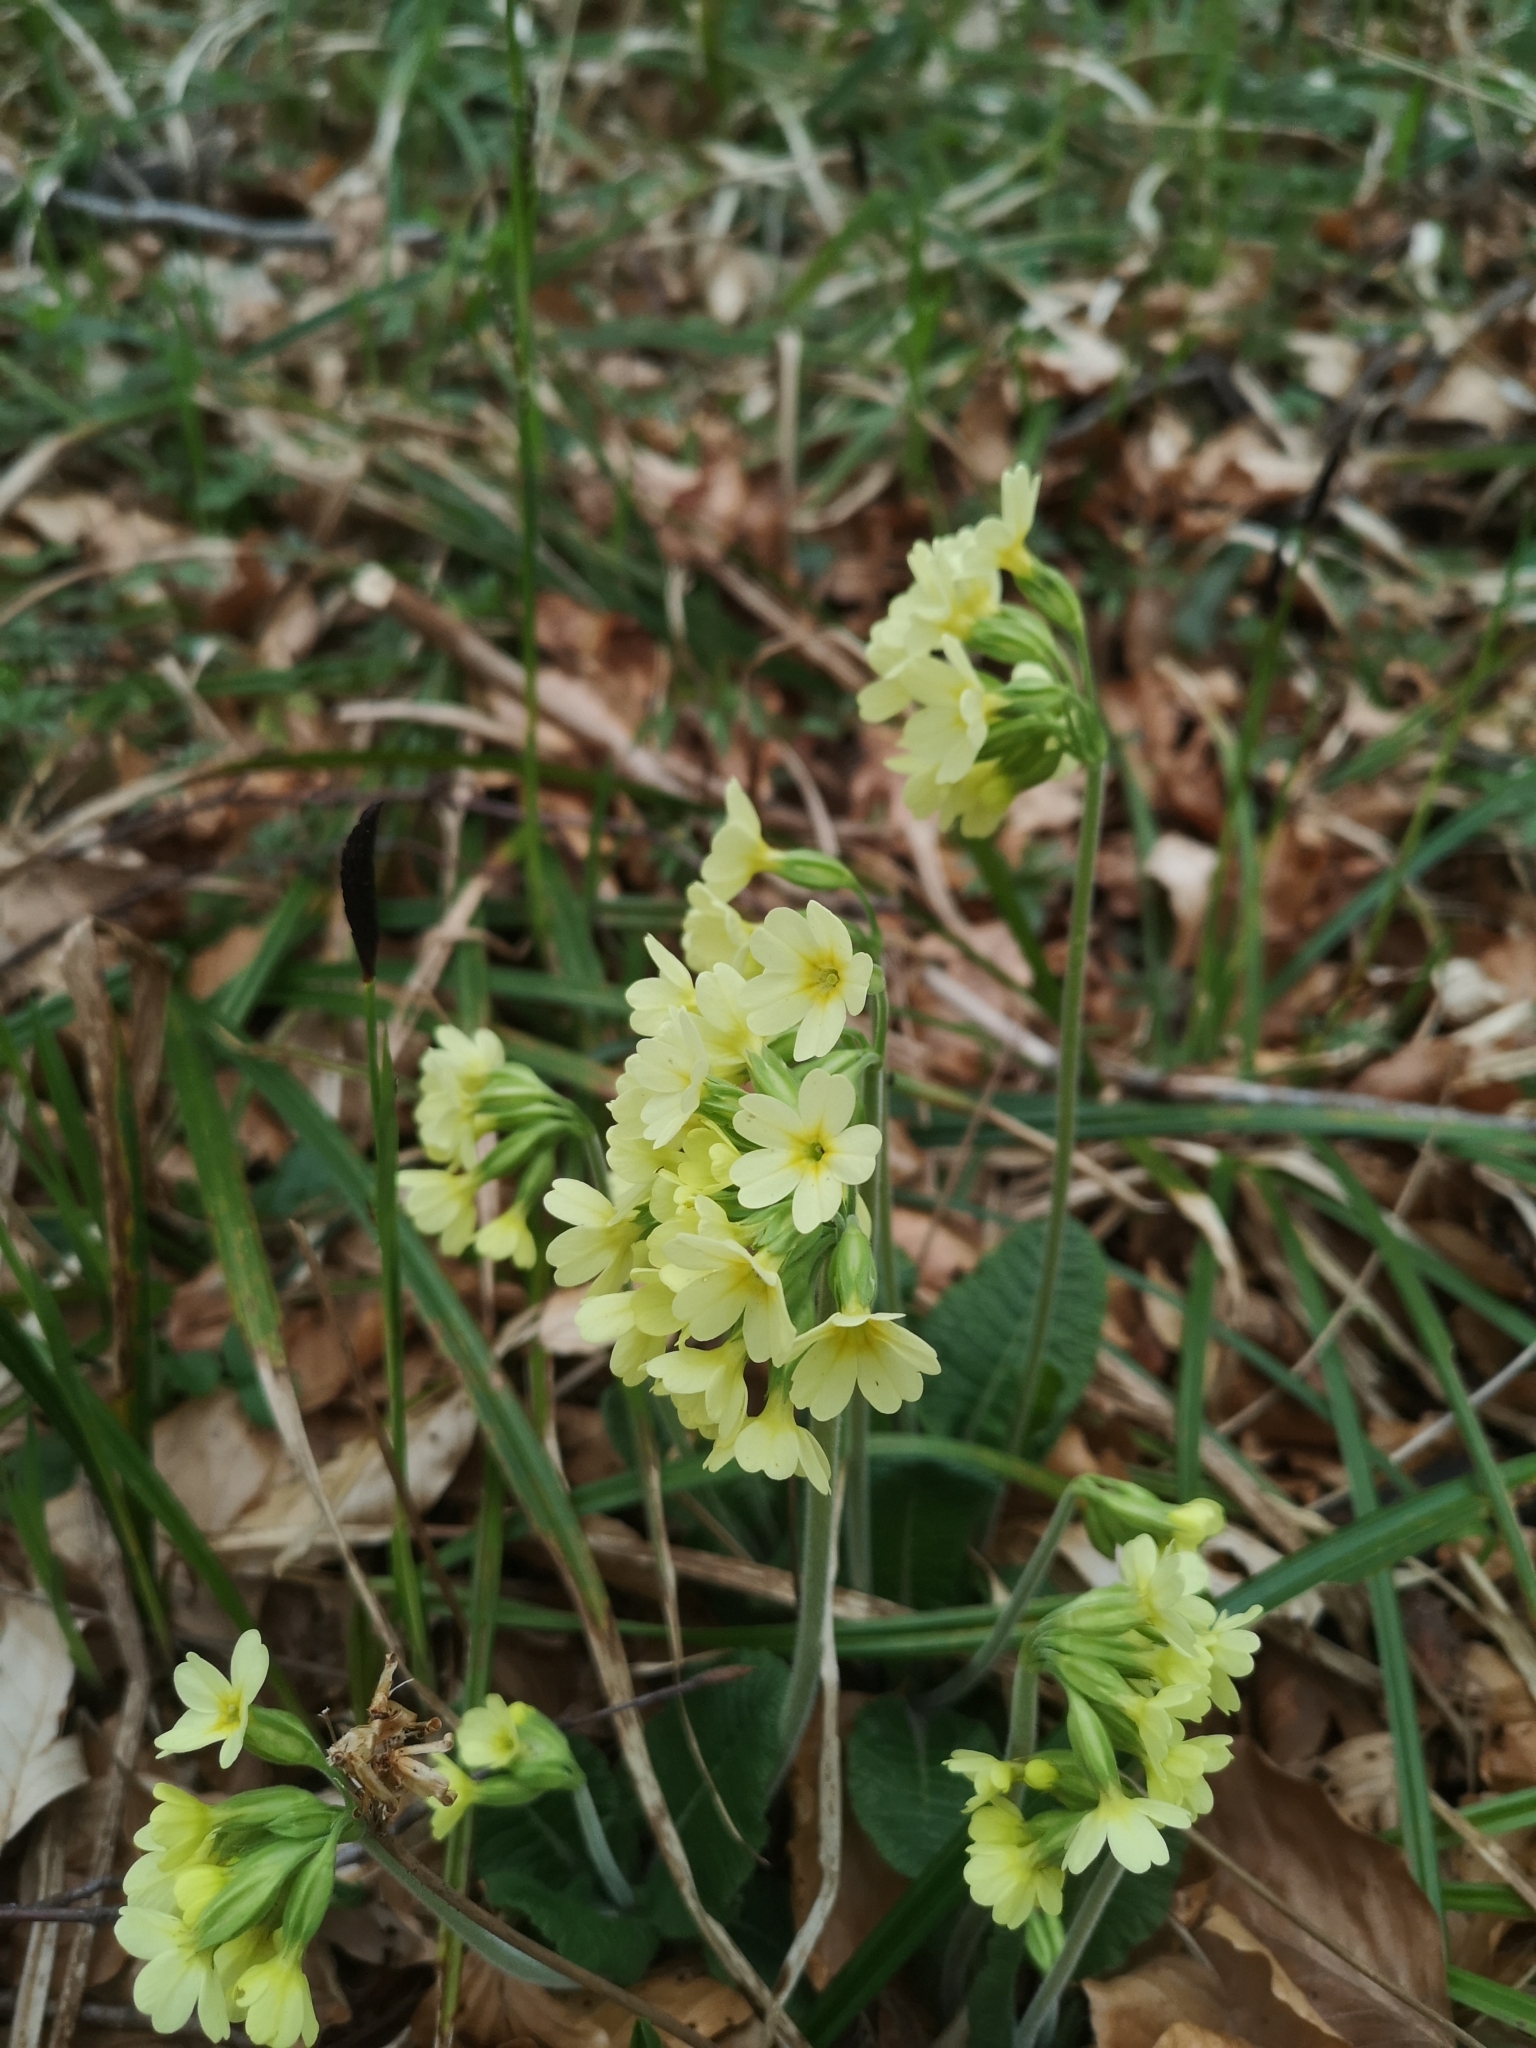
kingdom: Plantae
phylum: Tracheophyta
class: Magnoliopsida
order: Ericales
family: Primulaceae
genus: Primula
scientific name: Primula elatior
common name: Oxlip
